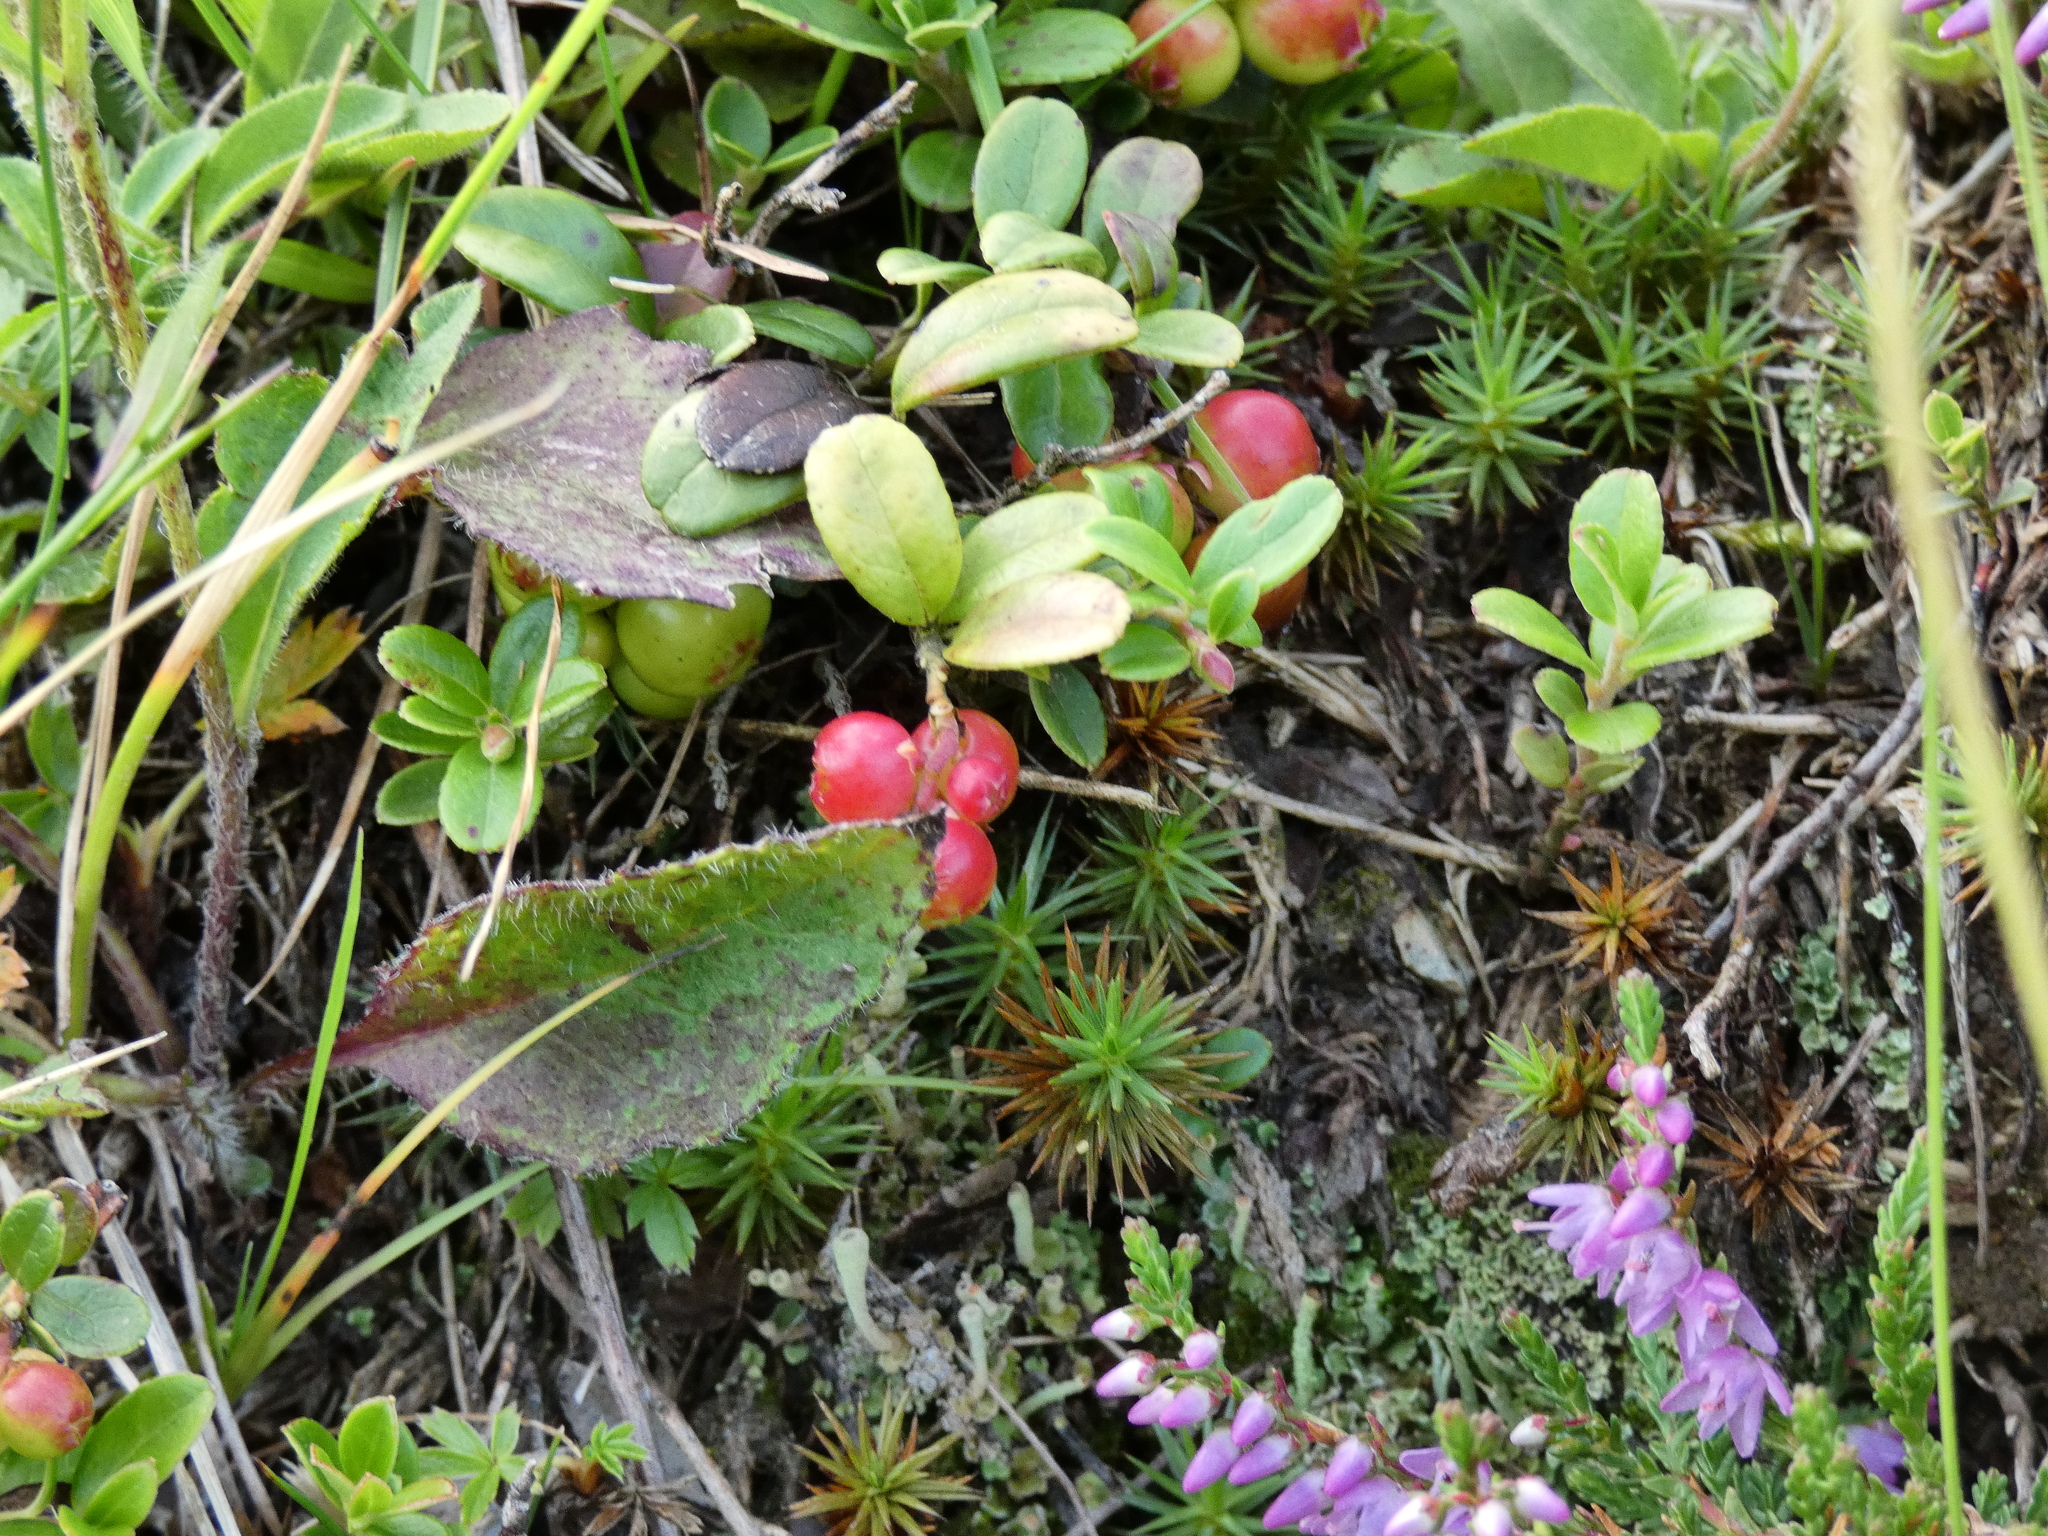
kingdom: Plantae
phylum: Tracheophyta
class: Magnoliopsida
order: Ericales
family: Ericaceae
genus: Vaccinium
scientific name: Vaccinium vitis-idaea
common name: Cowberry
